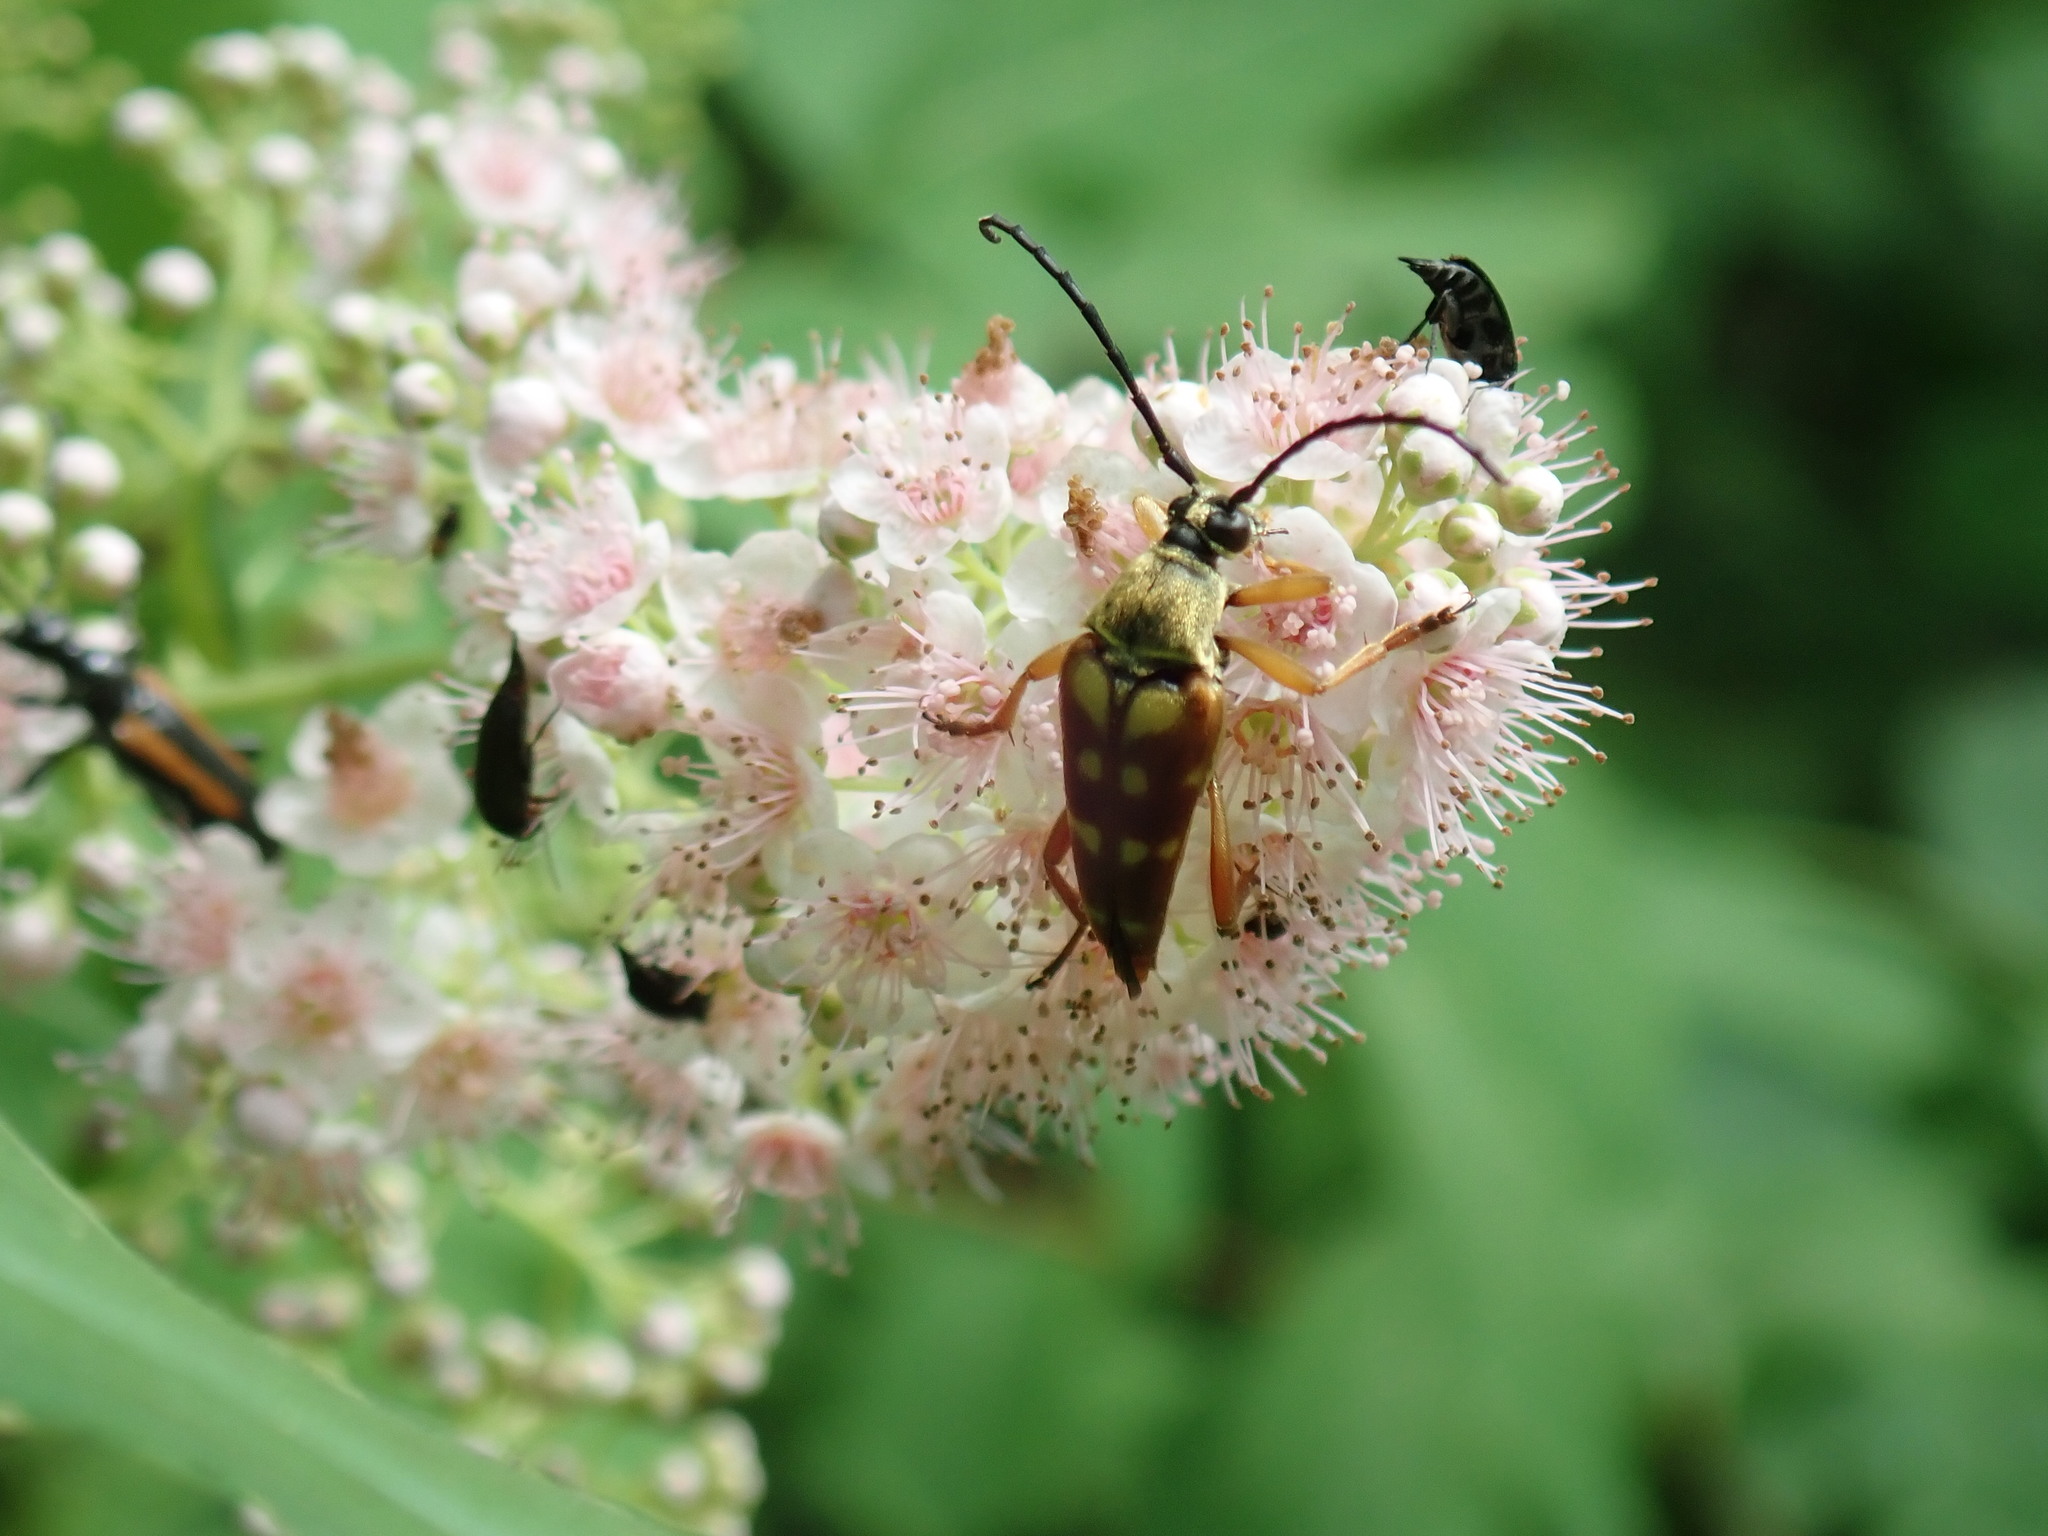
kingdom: Animalia
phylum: Arthropoda
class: Insecta
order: Coleoptera
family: Cerambycidae
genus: Typocerus
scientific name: Typocerus velutinus
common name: Banded longhorn beetle
